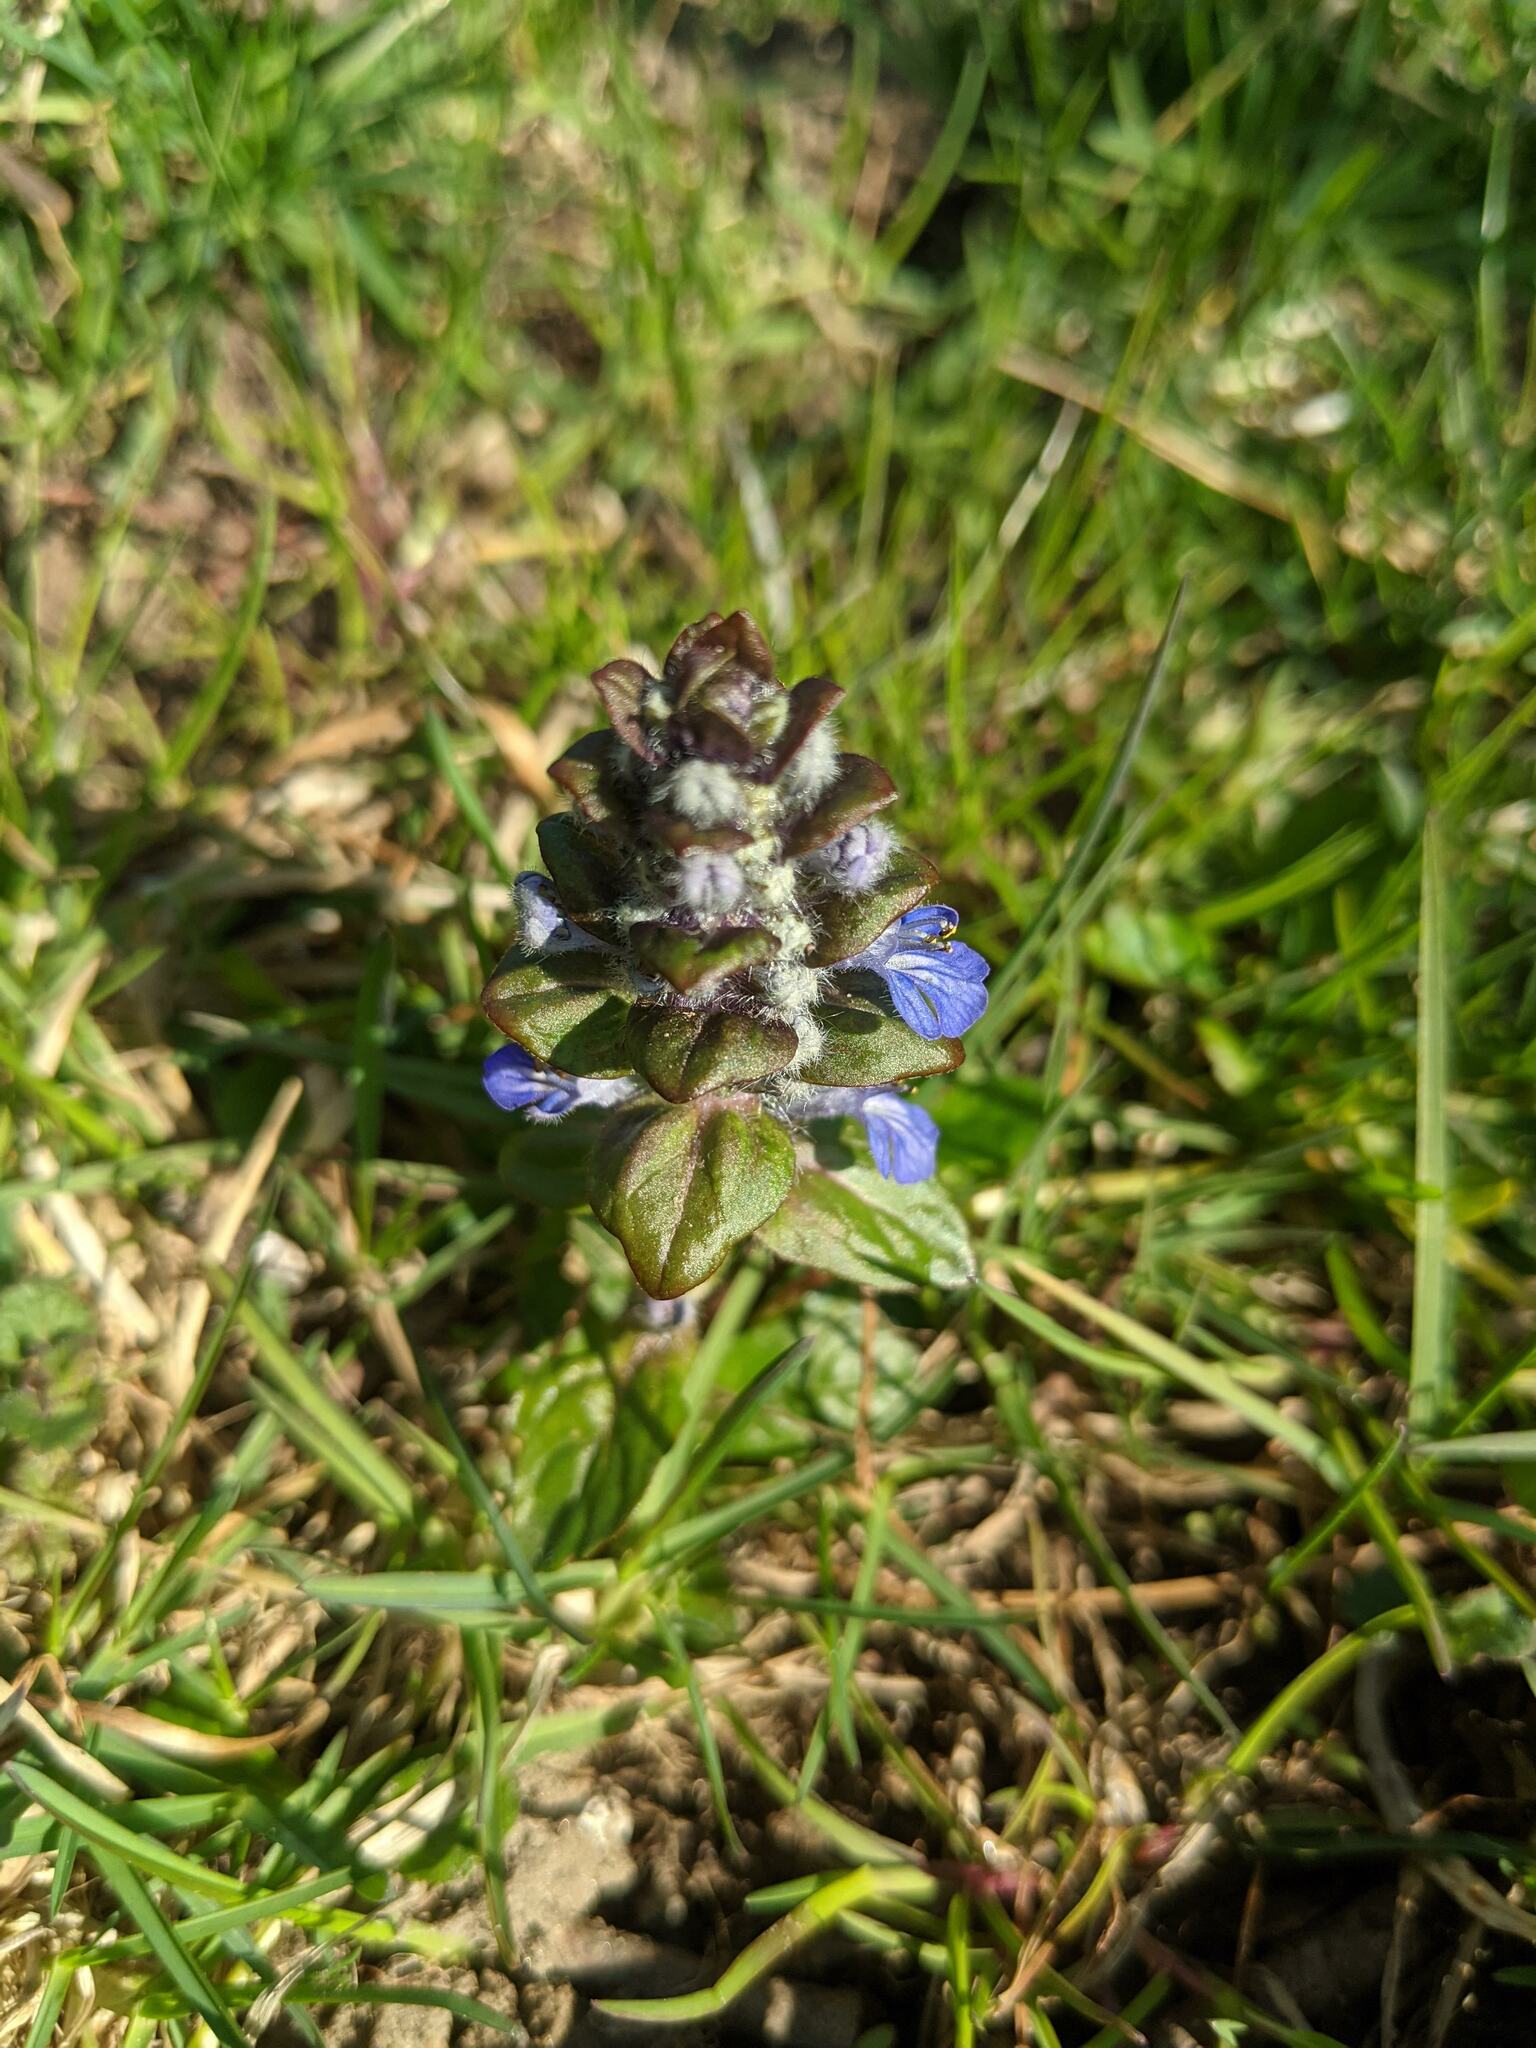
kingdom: Plantae
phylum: Tracheophyta
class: Magnoliopsida
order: Lamiales
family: Lamiaceae
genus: Ajuga
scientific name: Ajuga reptans
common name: Bugle
